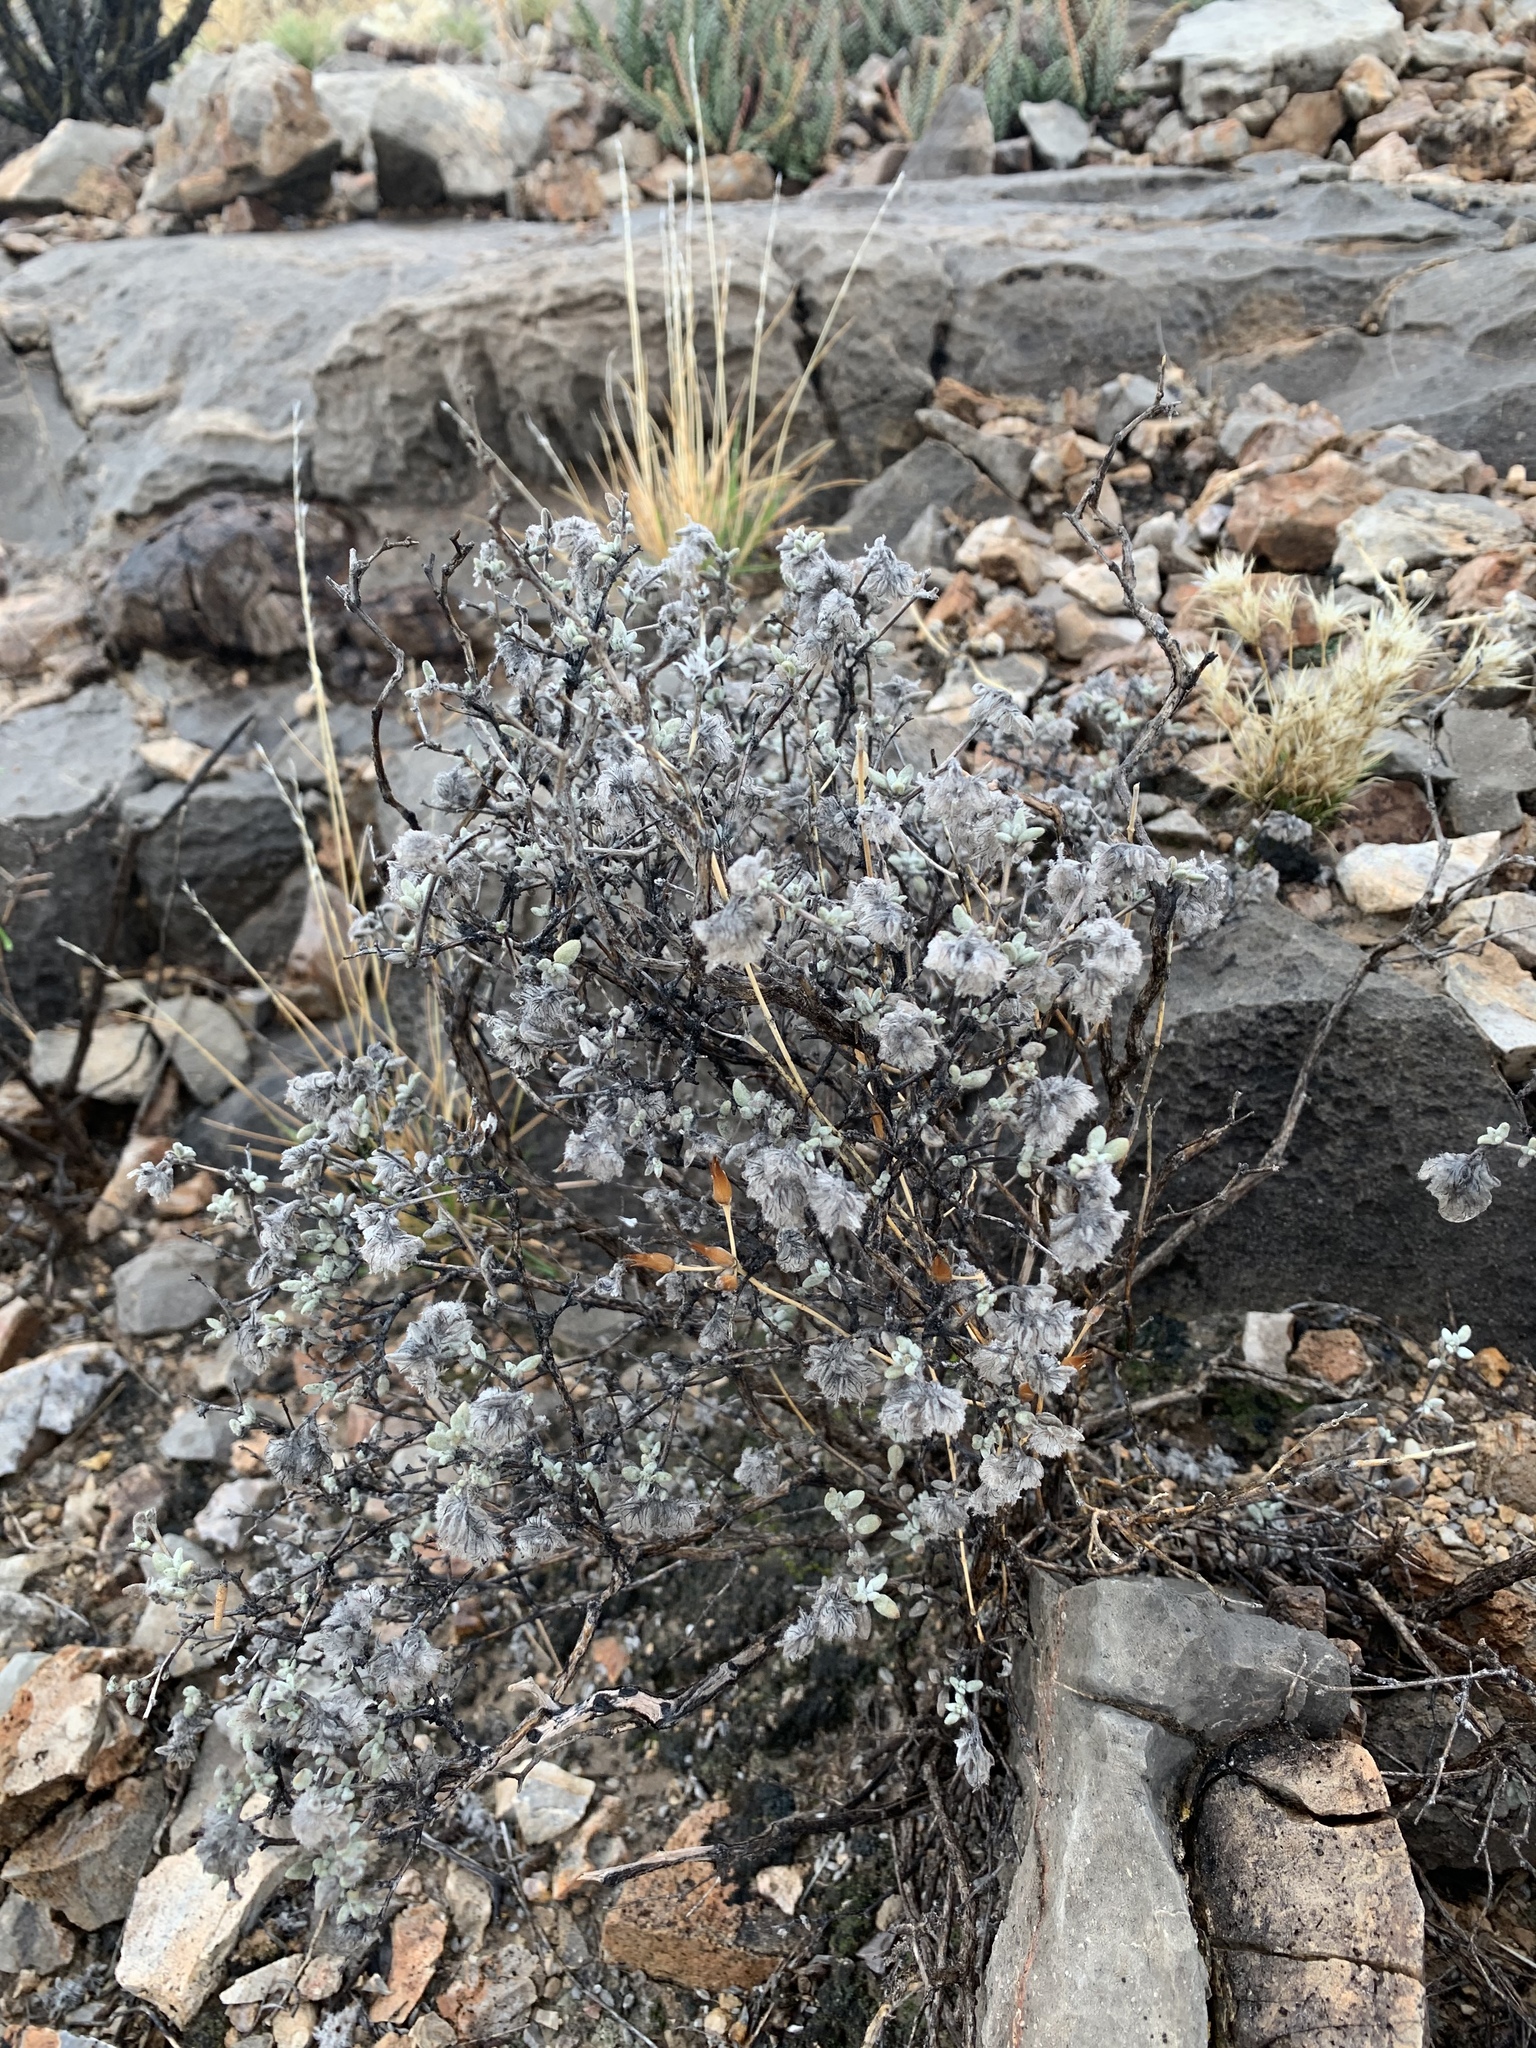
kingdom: Plantae
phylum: Tracheophyta
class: Magnoliopsida
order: Boraginales
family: Ehretiaceae
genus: Tiquilia
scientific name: Tiquilia greggii
